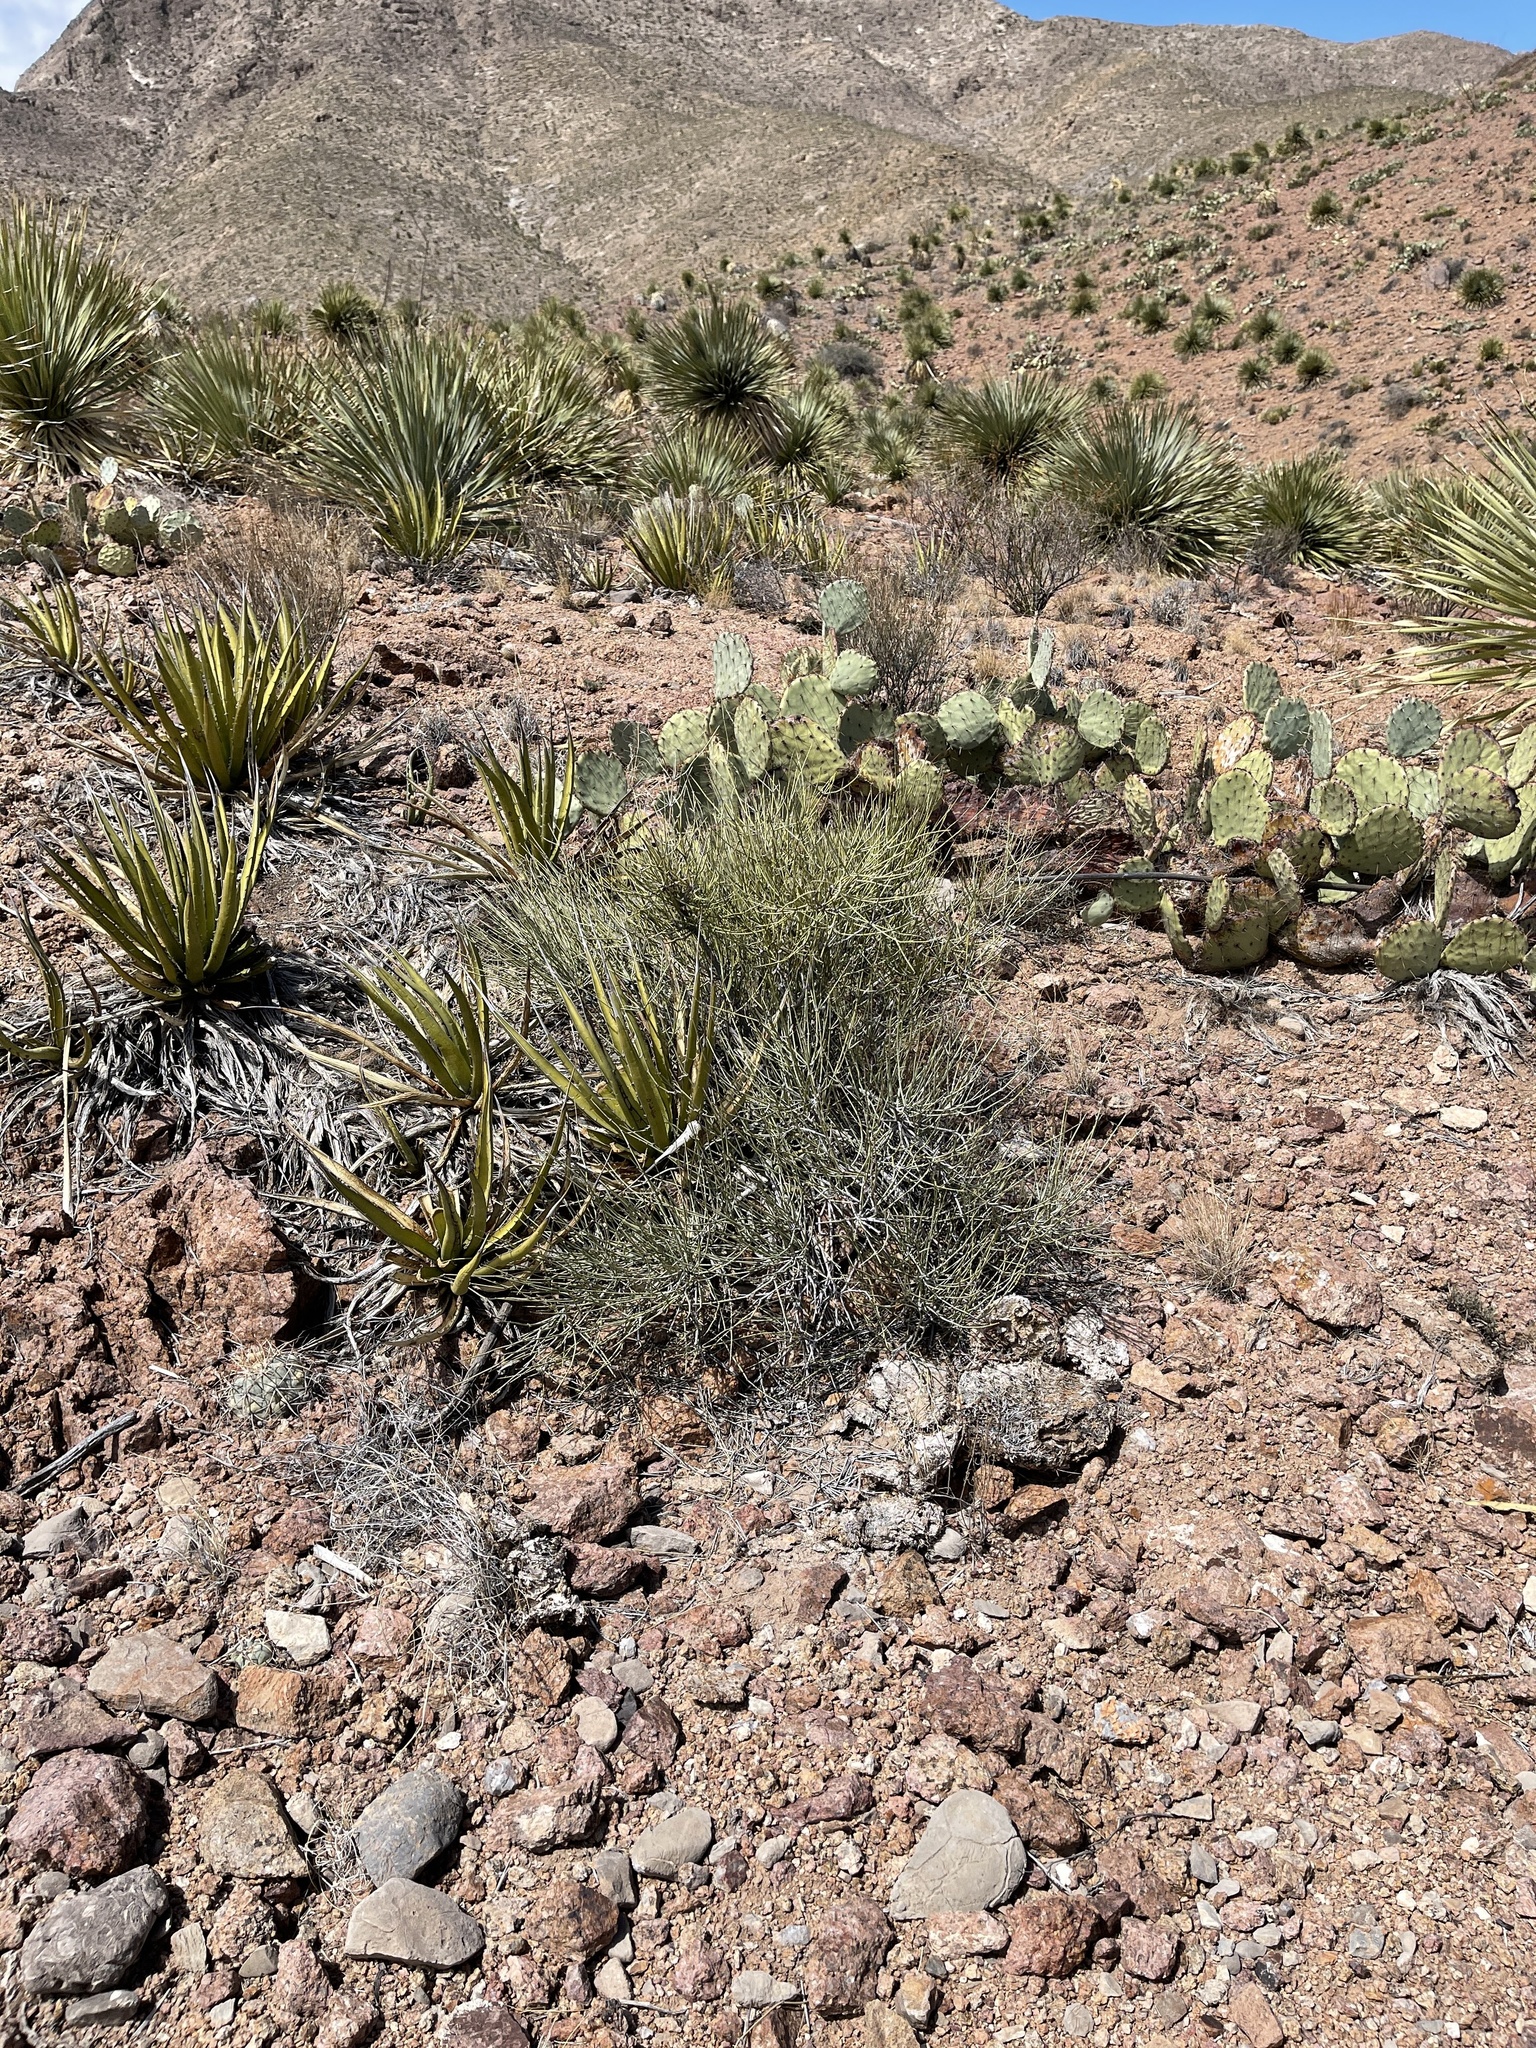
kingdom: Plantae
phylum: Tracheophyta
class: Gnetopsida
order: Ephedrales
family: Ephedraceae
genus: Ephedra
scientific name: Ephedra trifurca
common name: Mexican-tea
